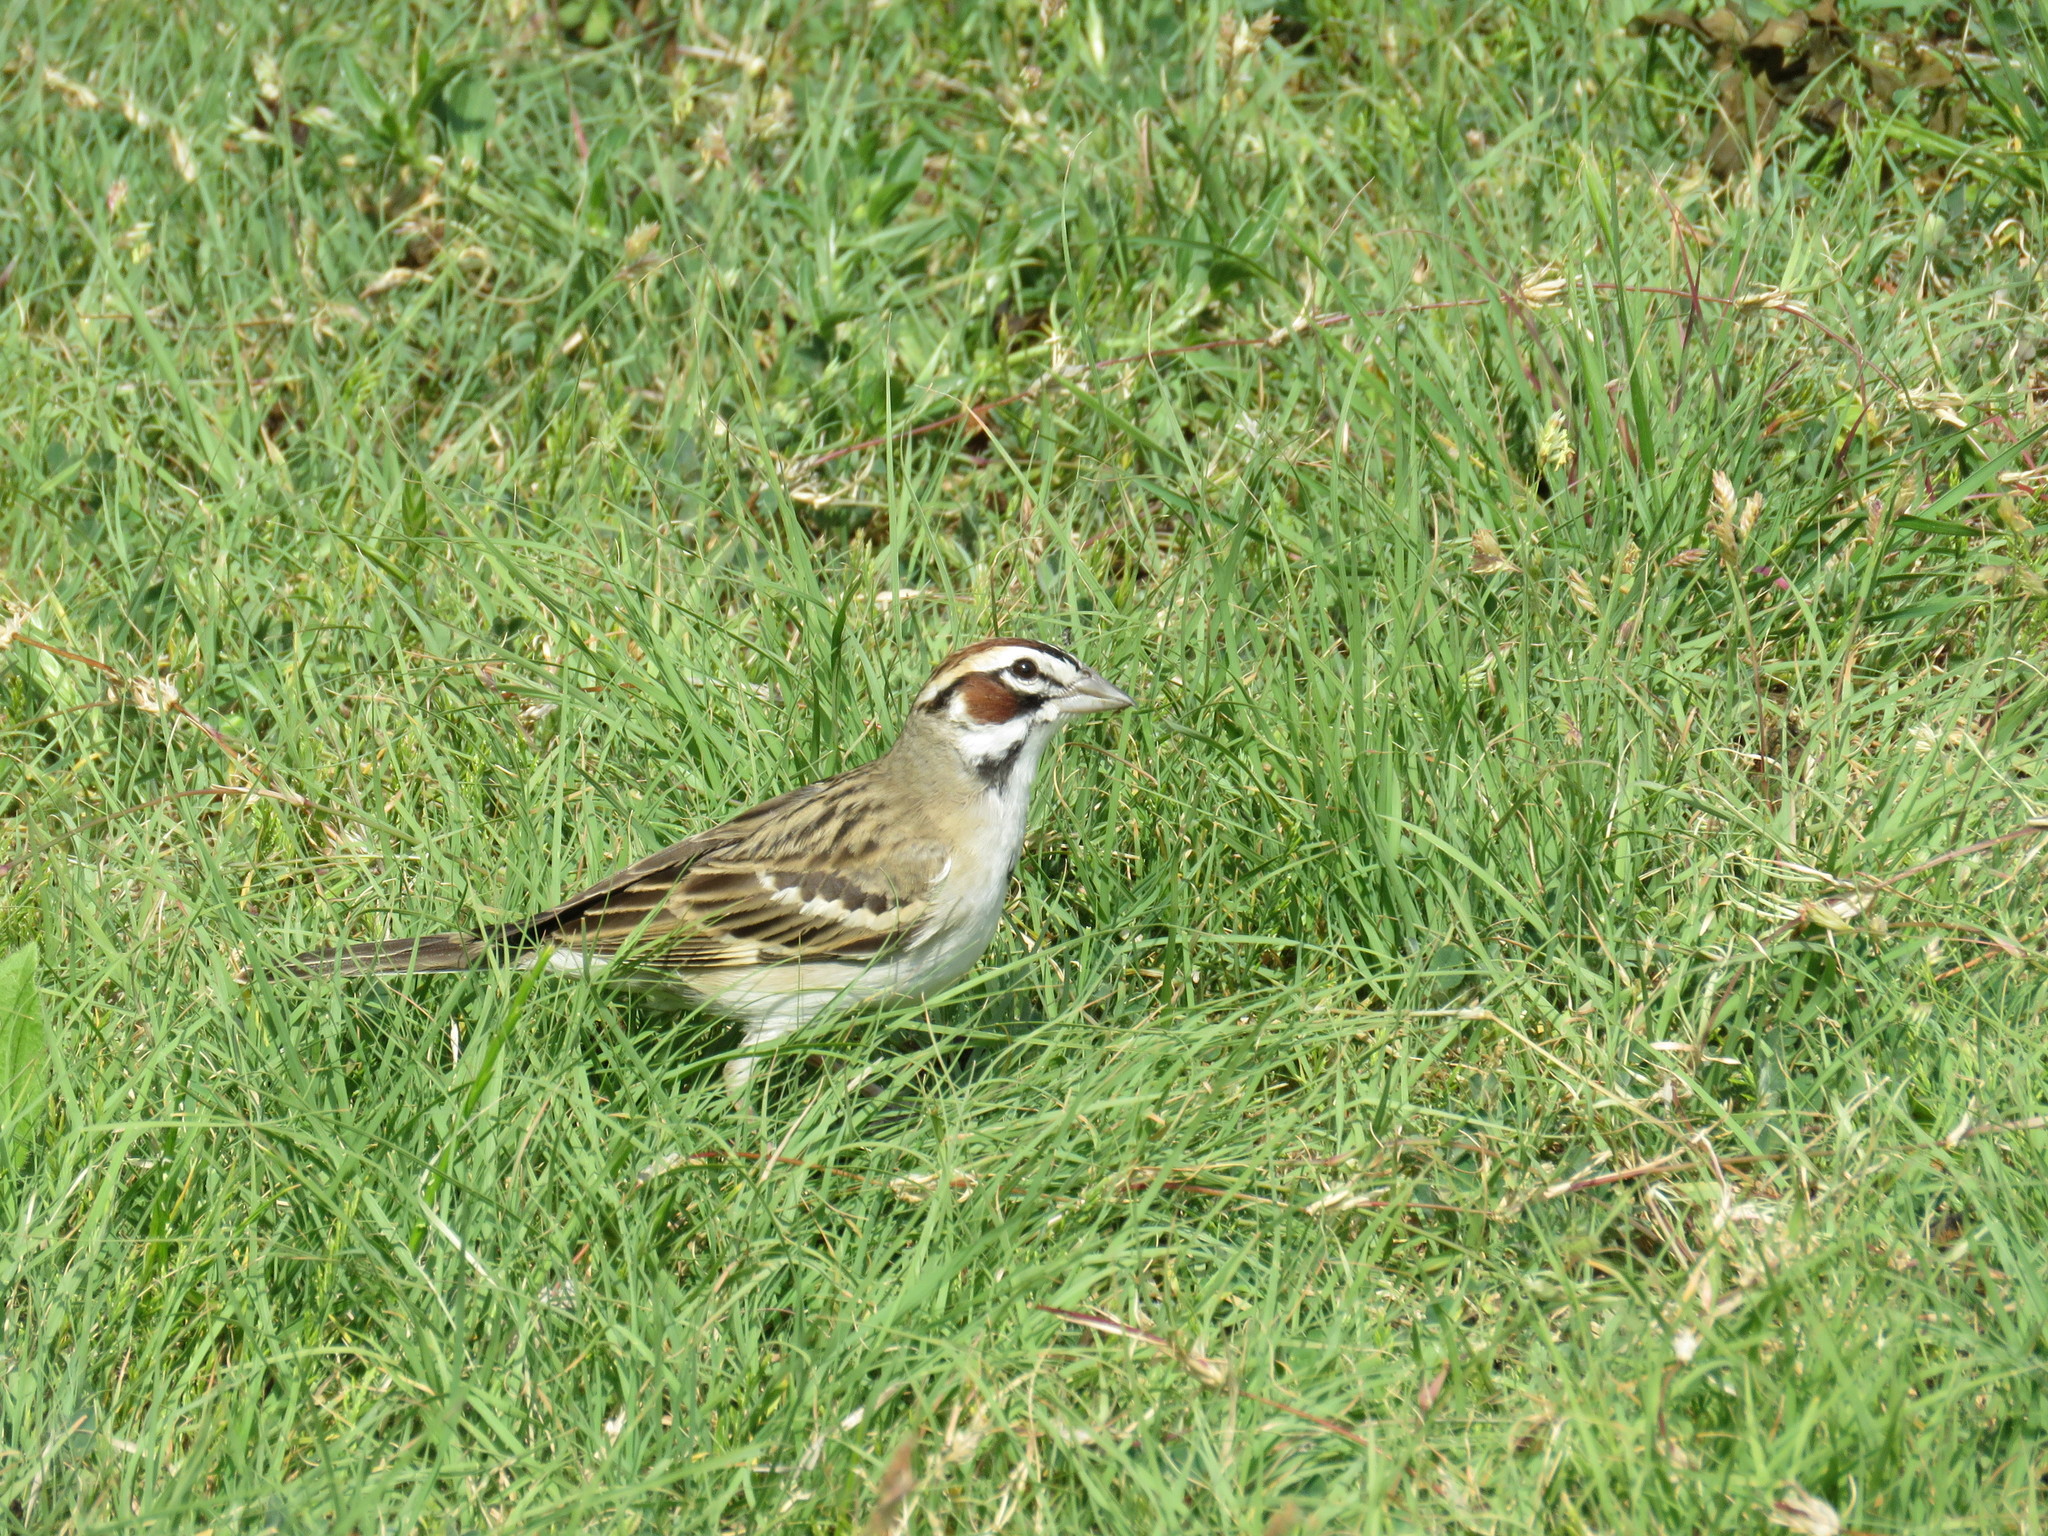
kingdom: Animalia
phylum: Chordata
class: Aves
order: Passeriformes
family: Passerellidae
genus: Chondestes
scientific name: Chondestes grammacus
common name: Lark sparrow
